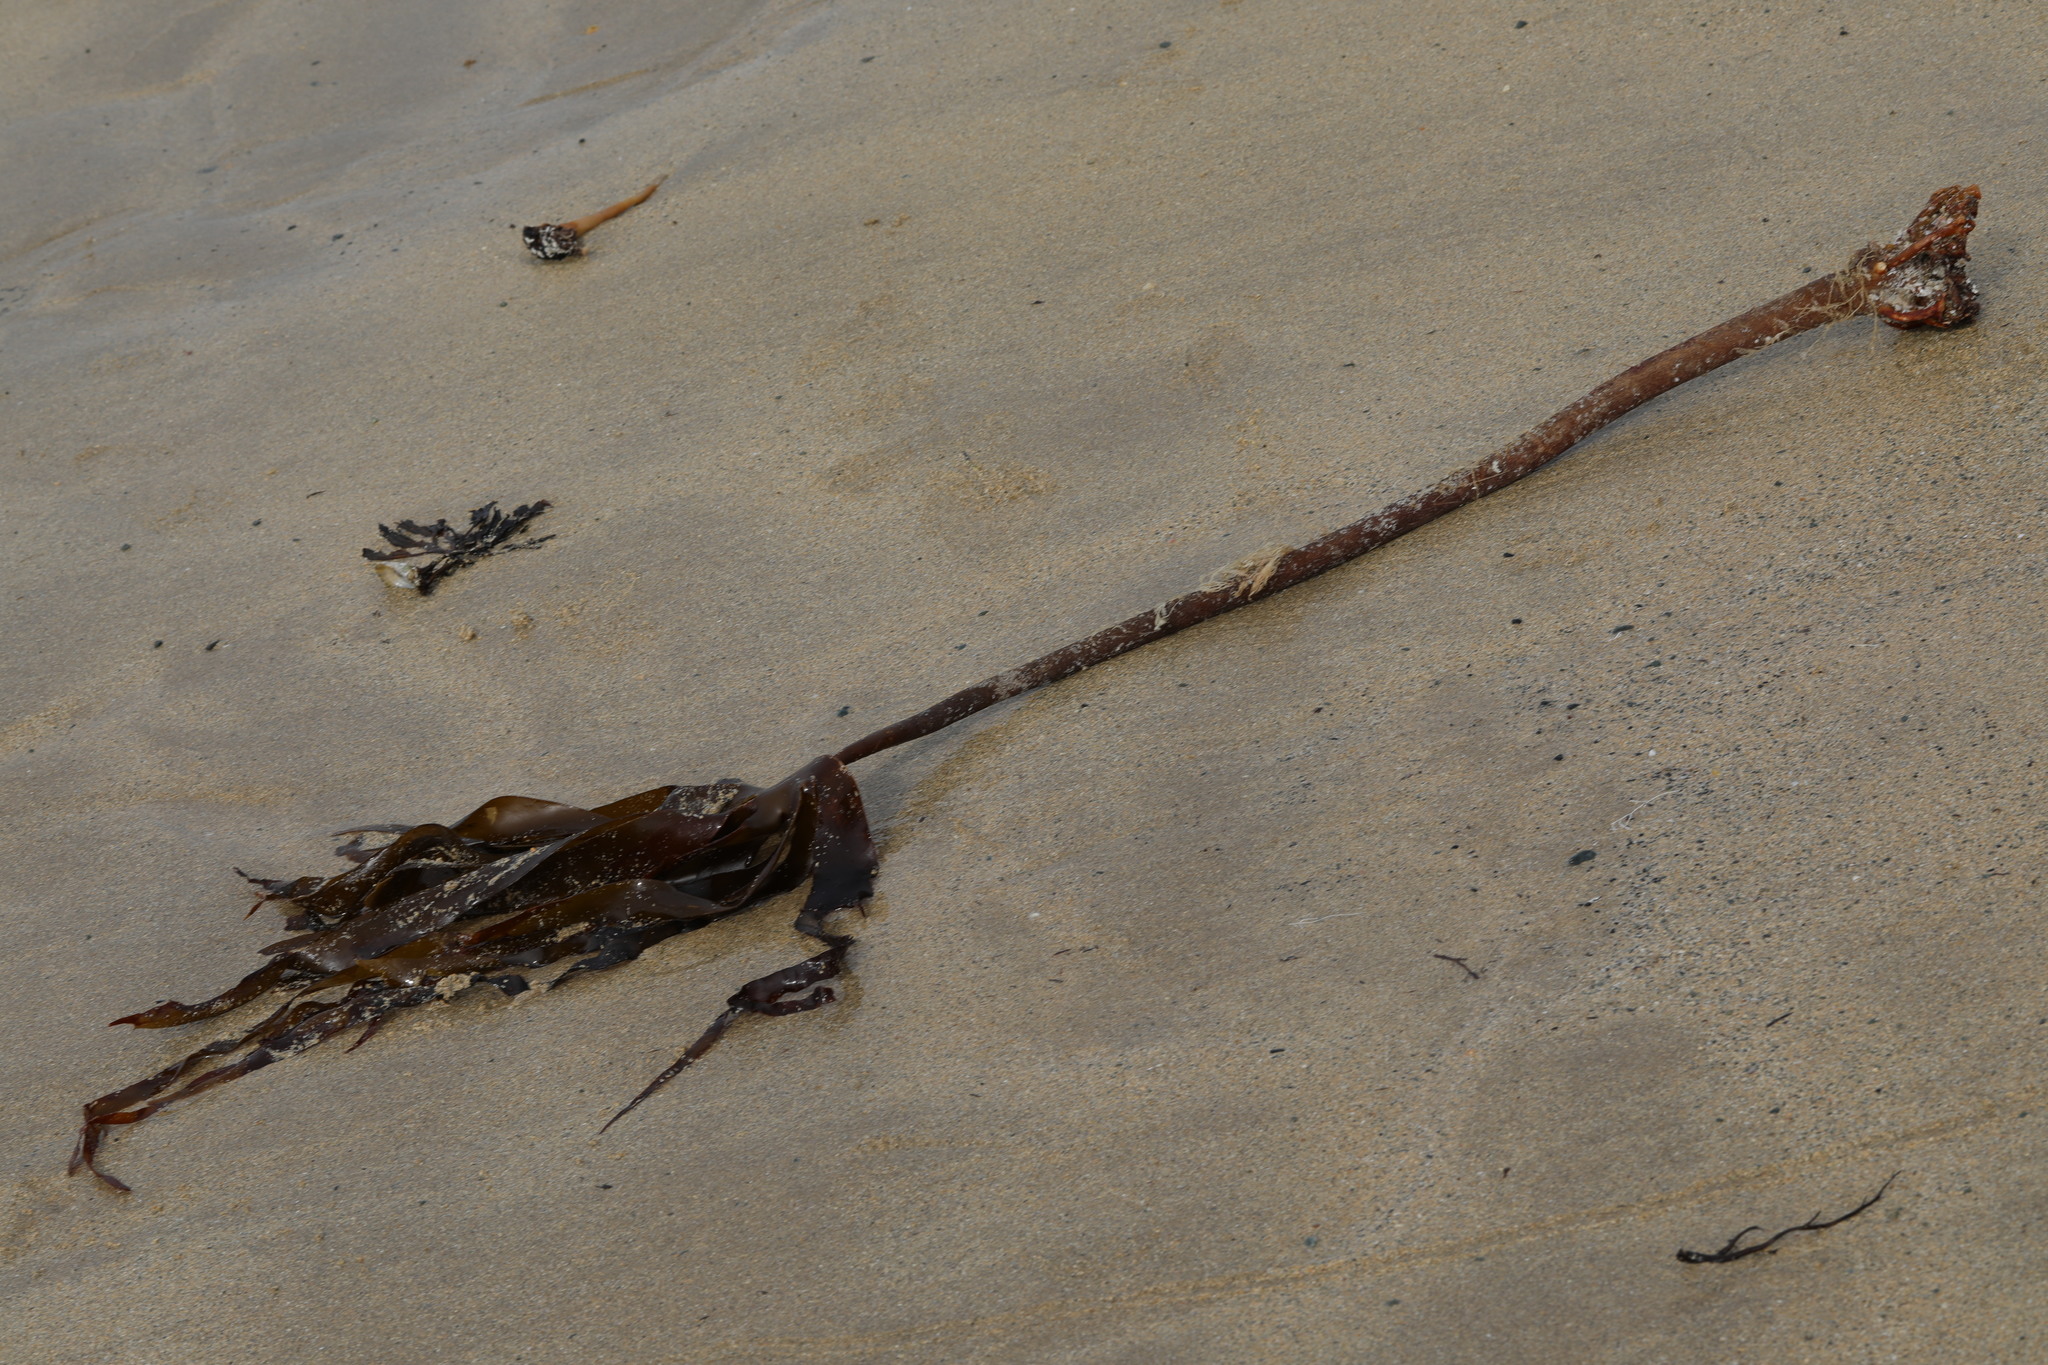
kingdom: Chromista
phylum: Ochrophyta
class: Phaeophyceae
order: Laminariales
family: Laminariaceae
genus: Laminaria
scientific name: Laminaria hyperborea
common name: Cuvie
